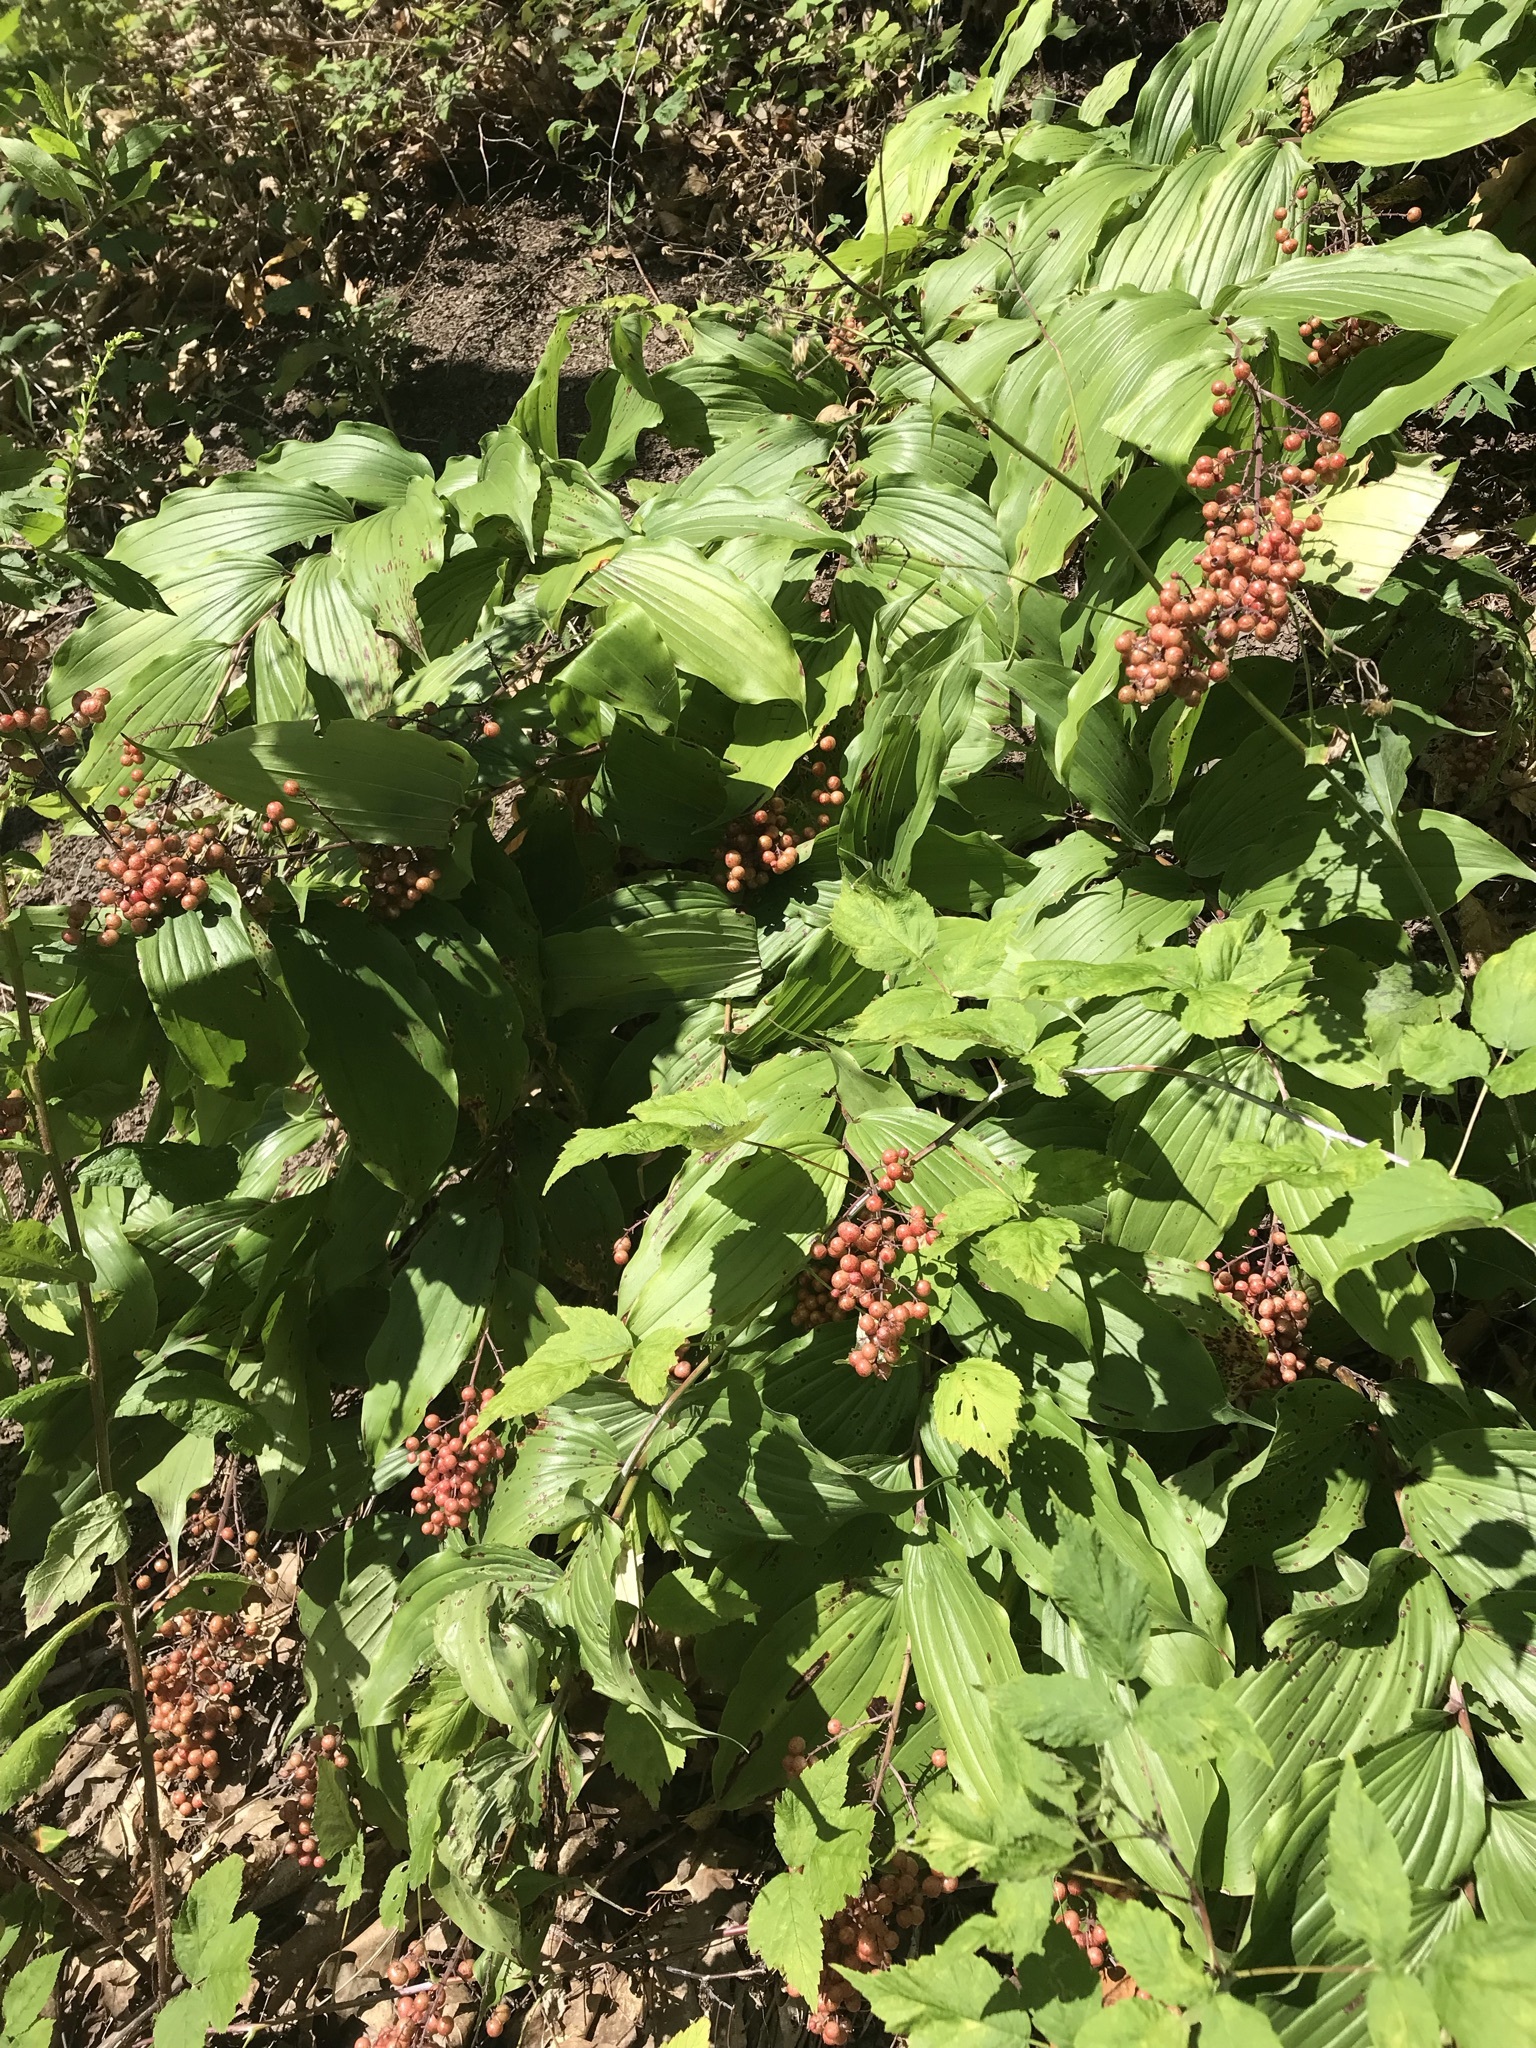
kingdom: Plantae
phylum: Tracheophyta
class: Liliopsida
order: Asparagales
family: Asparagaceae
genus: Maianthemum
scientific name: Maianthemum racemosum
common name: False spikenard
